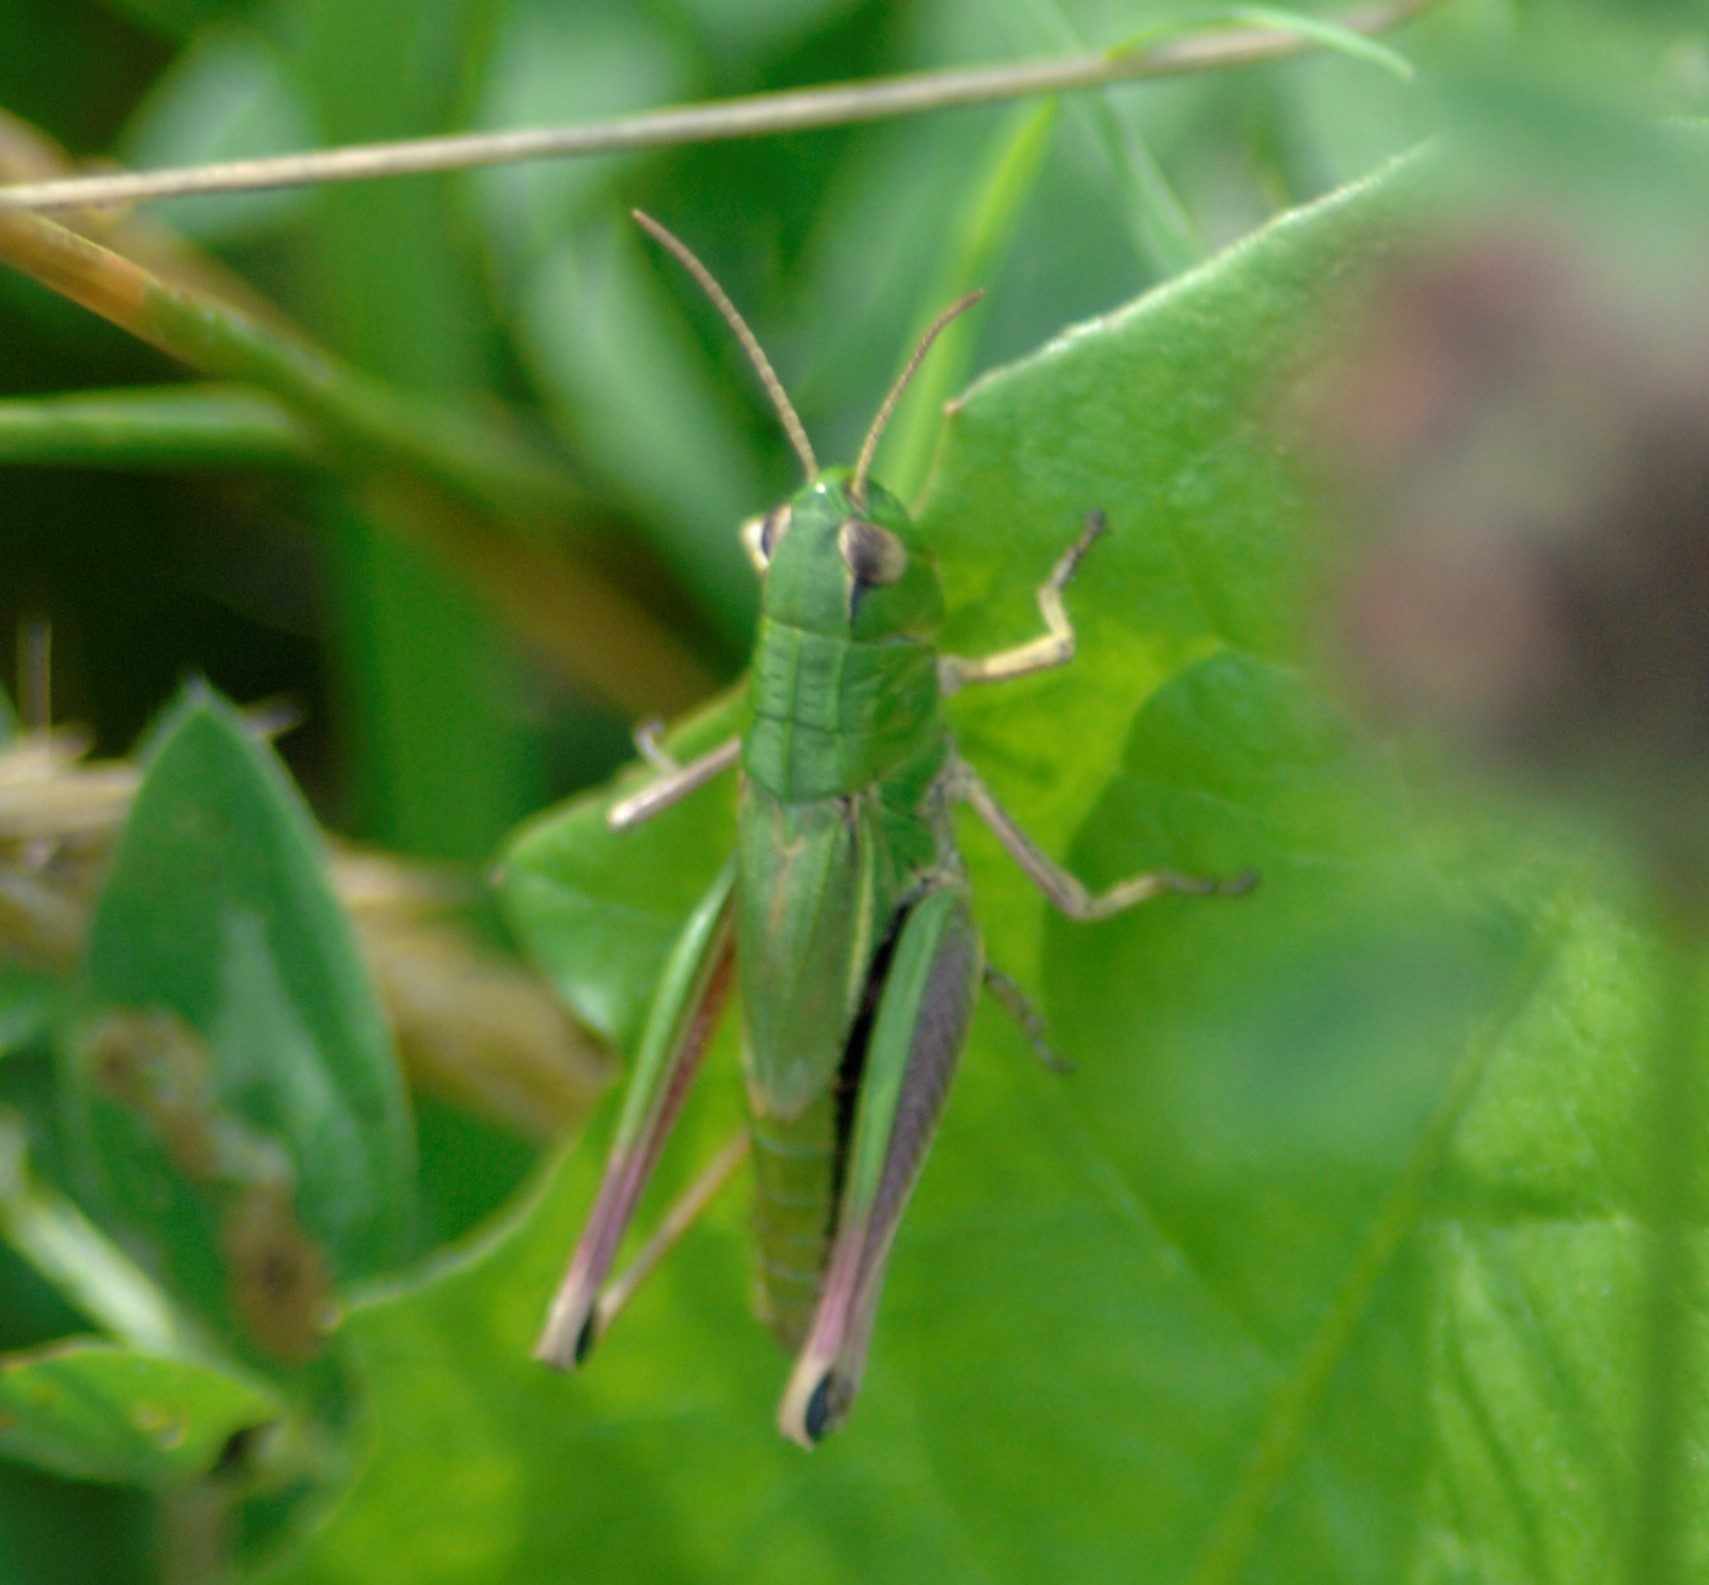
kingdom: Animalia
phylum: Arthropoda
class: Insecta
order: Orthoptera
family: Acrididae
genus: Pseudochorthippus
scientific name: Pseudochorthippus parallelus
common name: Meadow grasshopper
